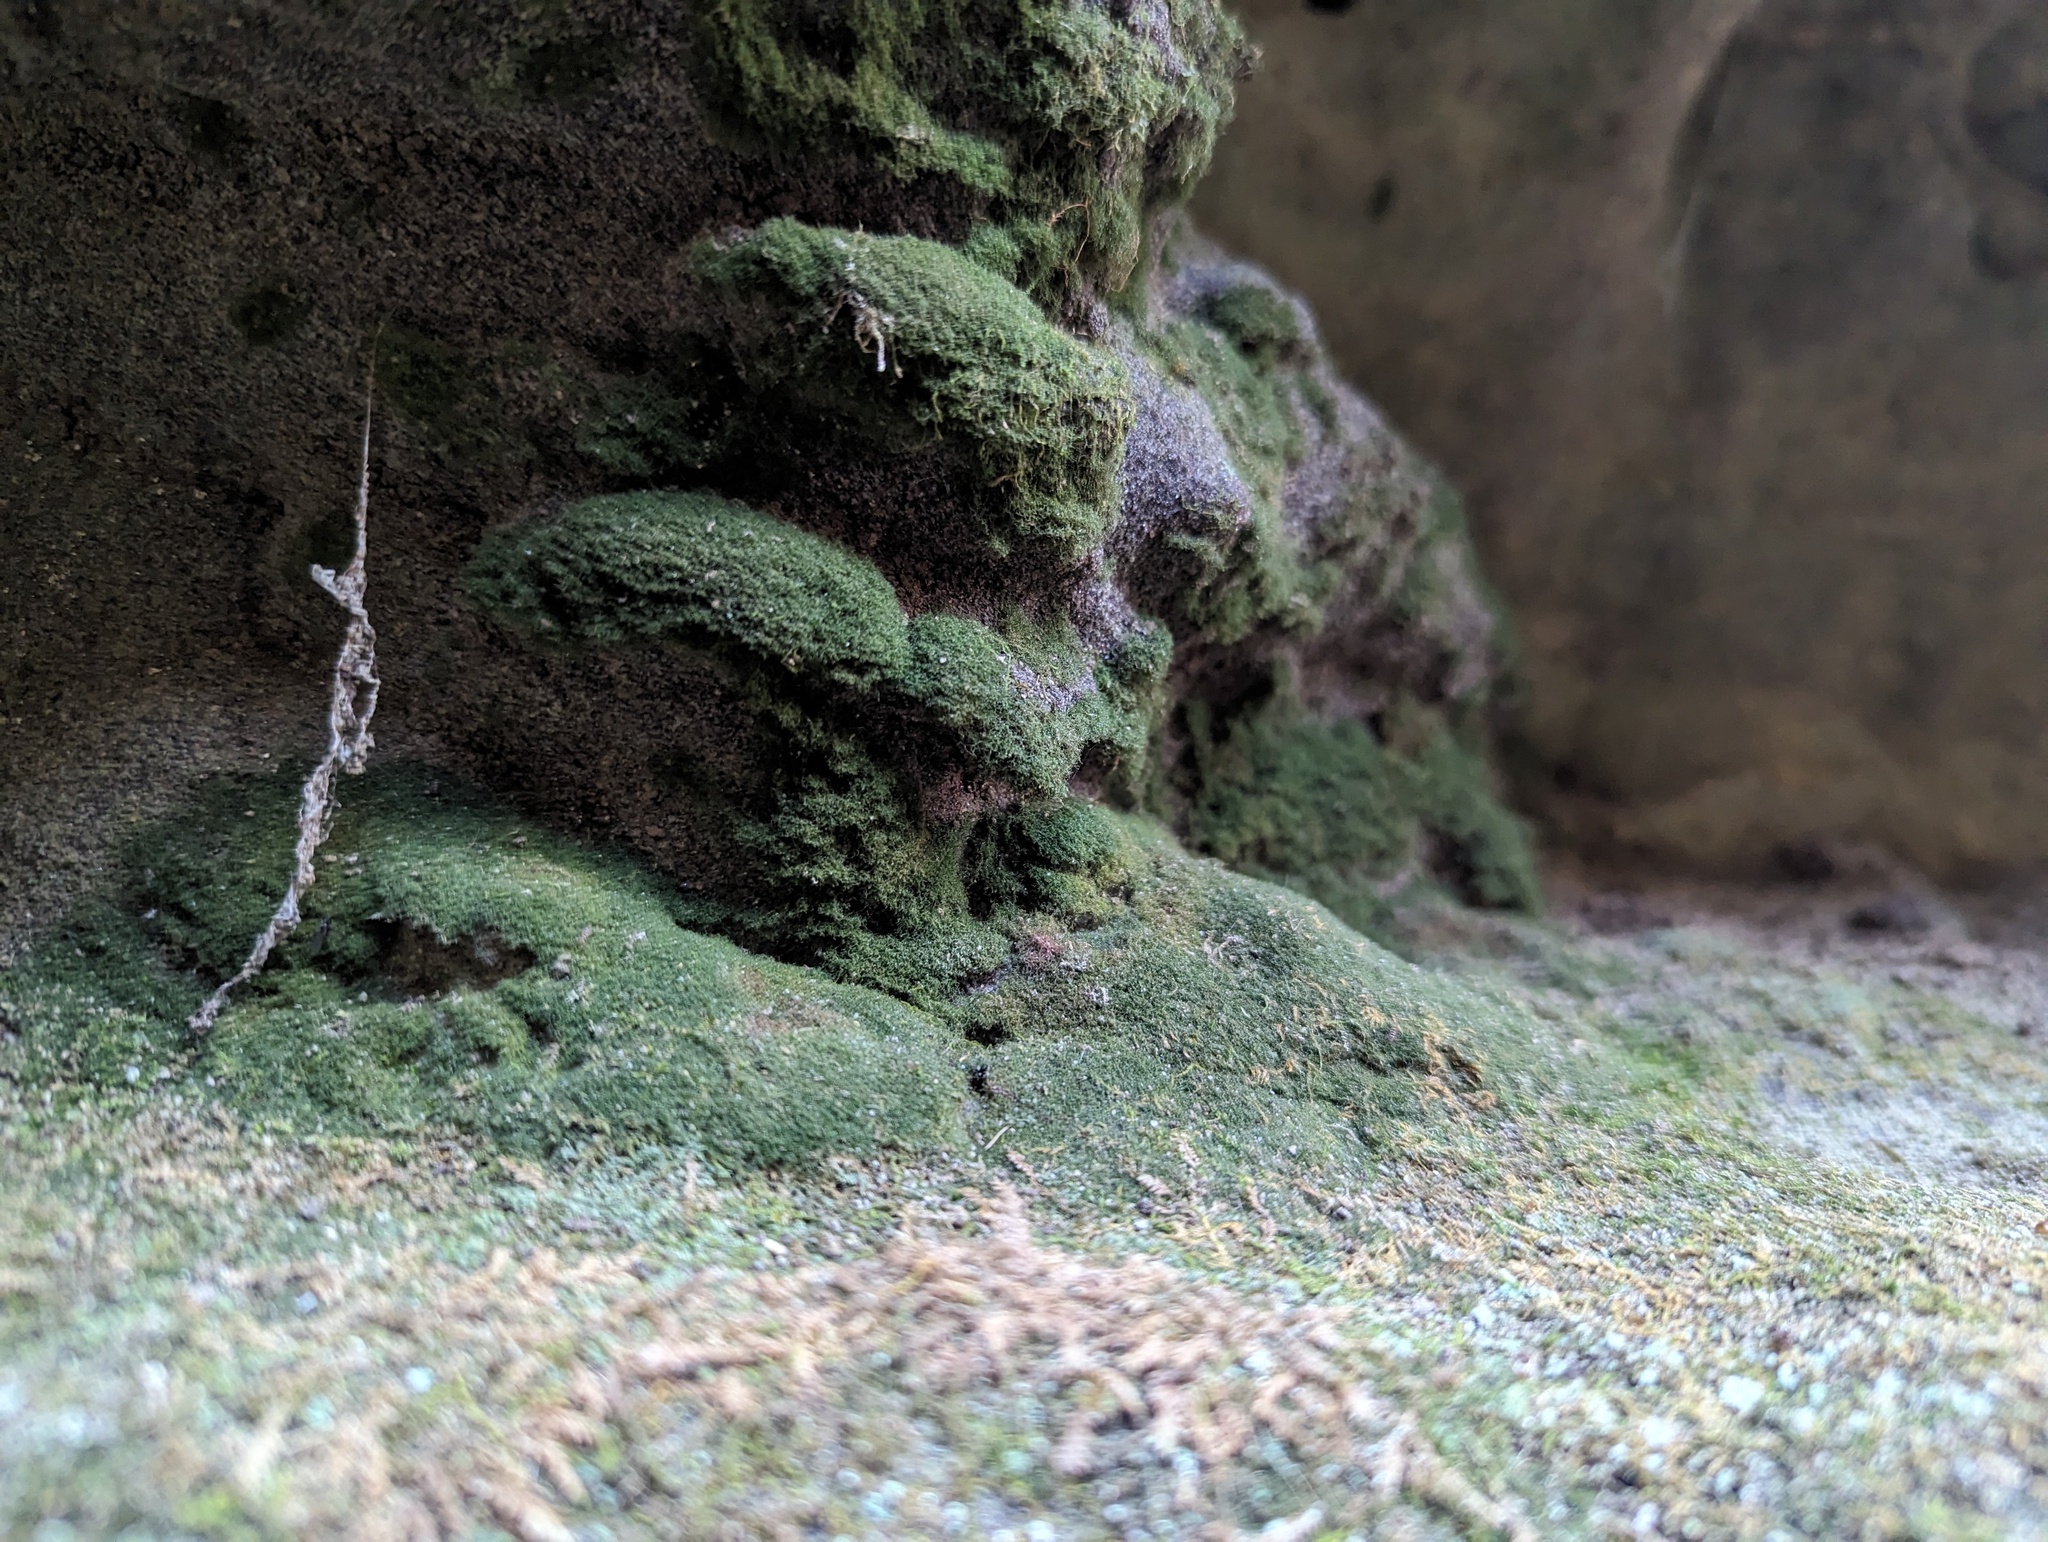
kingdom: Plantae
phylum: Tracheophyta
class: Polypodiopsida
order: Hymenophyllales
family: Hymenophyllaceae
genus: Crepidomanes
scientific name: Crepidomanes intricatum
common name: Weft fern
